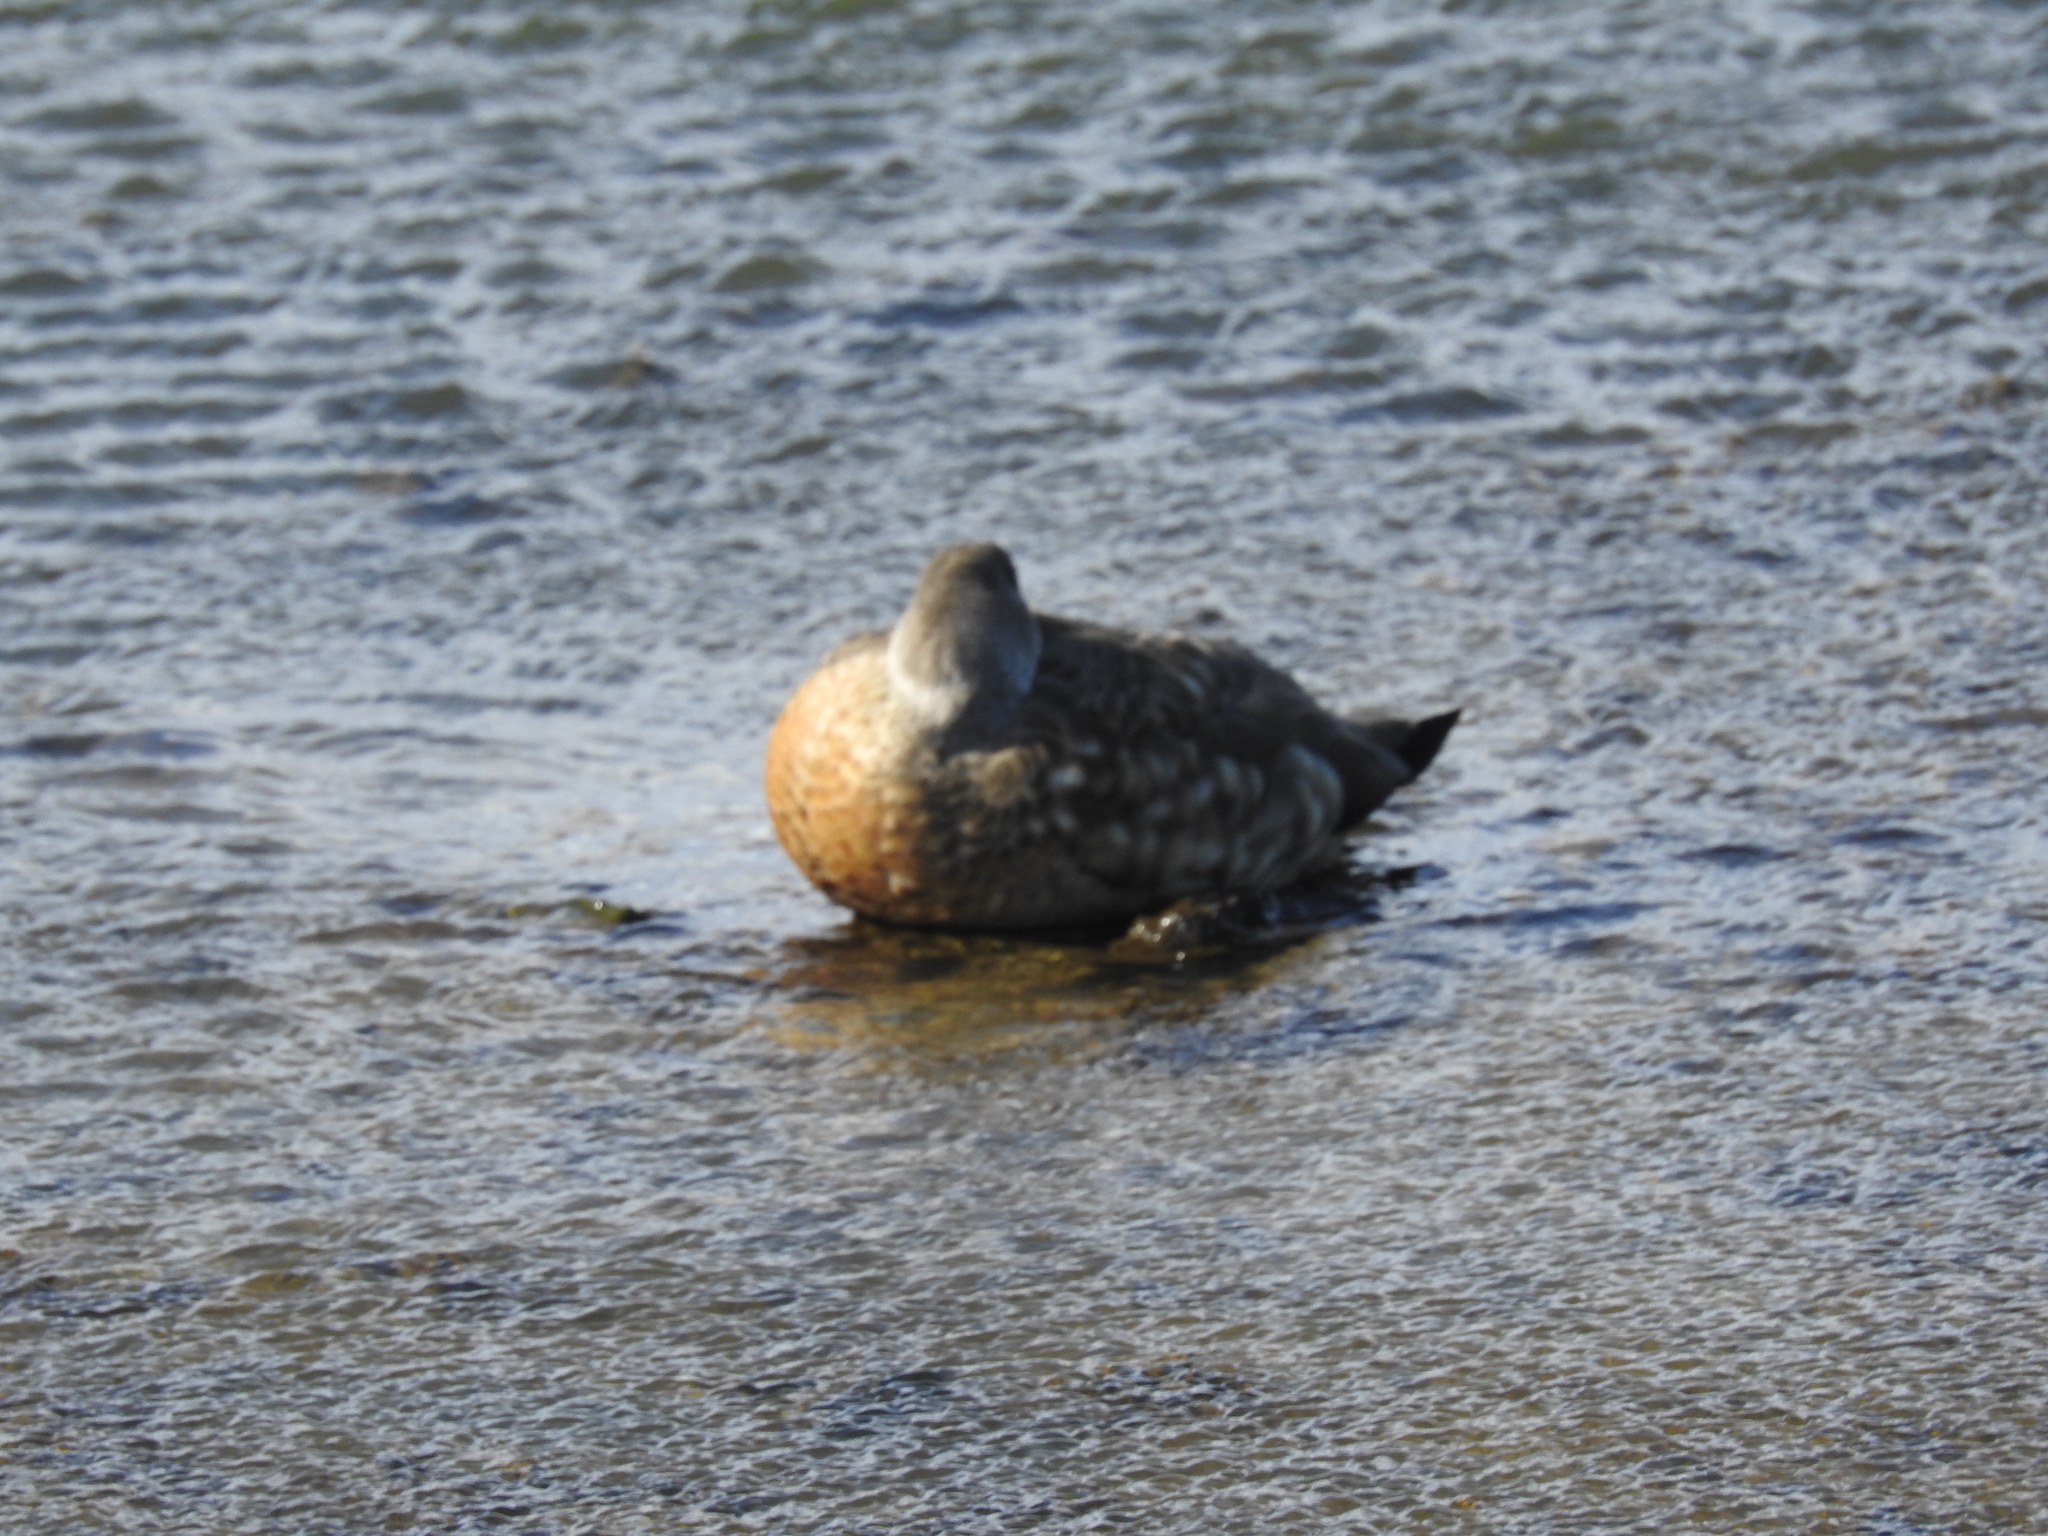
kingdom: Animalia
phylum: Chordata
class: Aves
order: Anseriformes
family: Anatidae
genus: Lophonetta
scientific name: Lophonetta specularioides
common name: Crested duck
